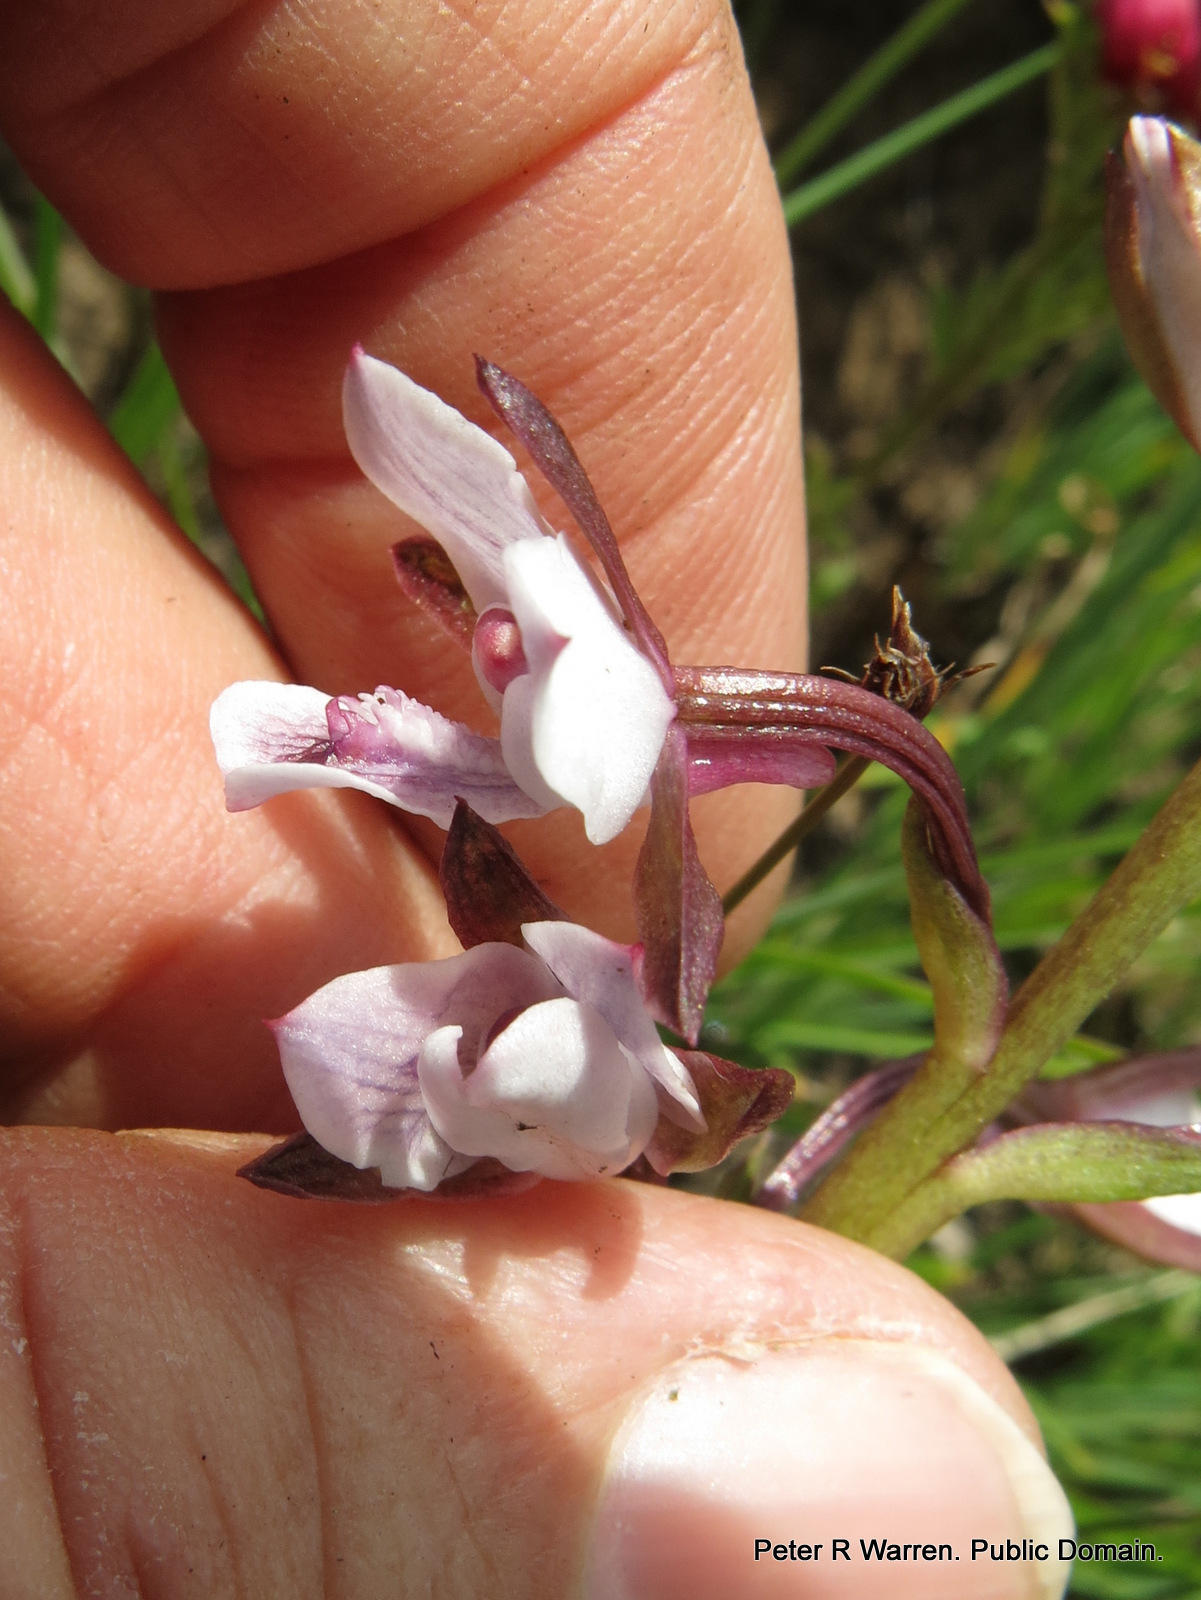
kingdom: Plantae
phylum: Tracheophyta
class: Liliopsida
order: Asparagales
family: Orchidaceae
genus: Eulophia
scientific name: Eulophia hians
